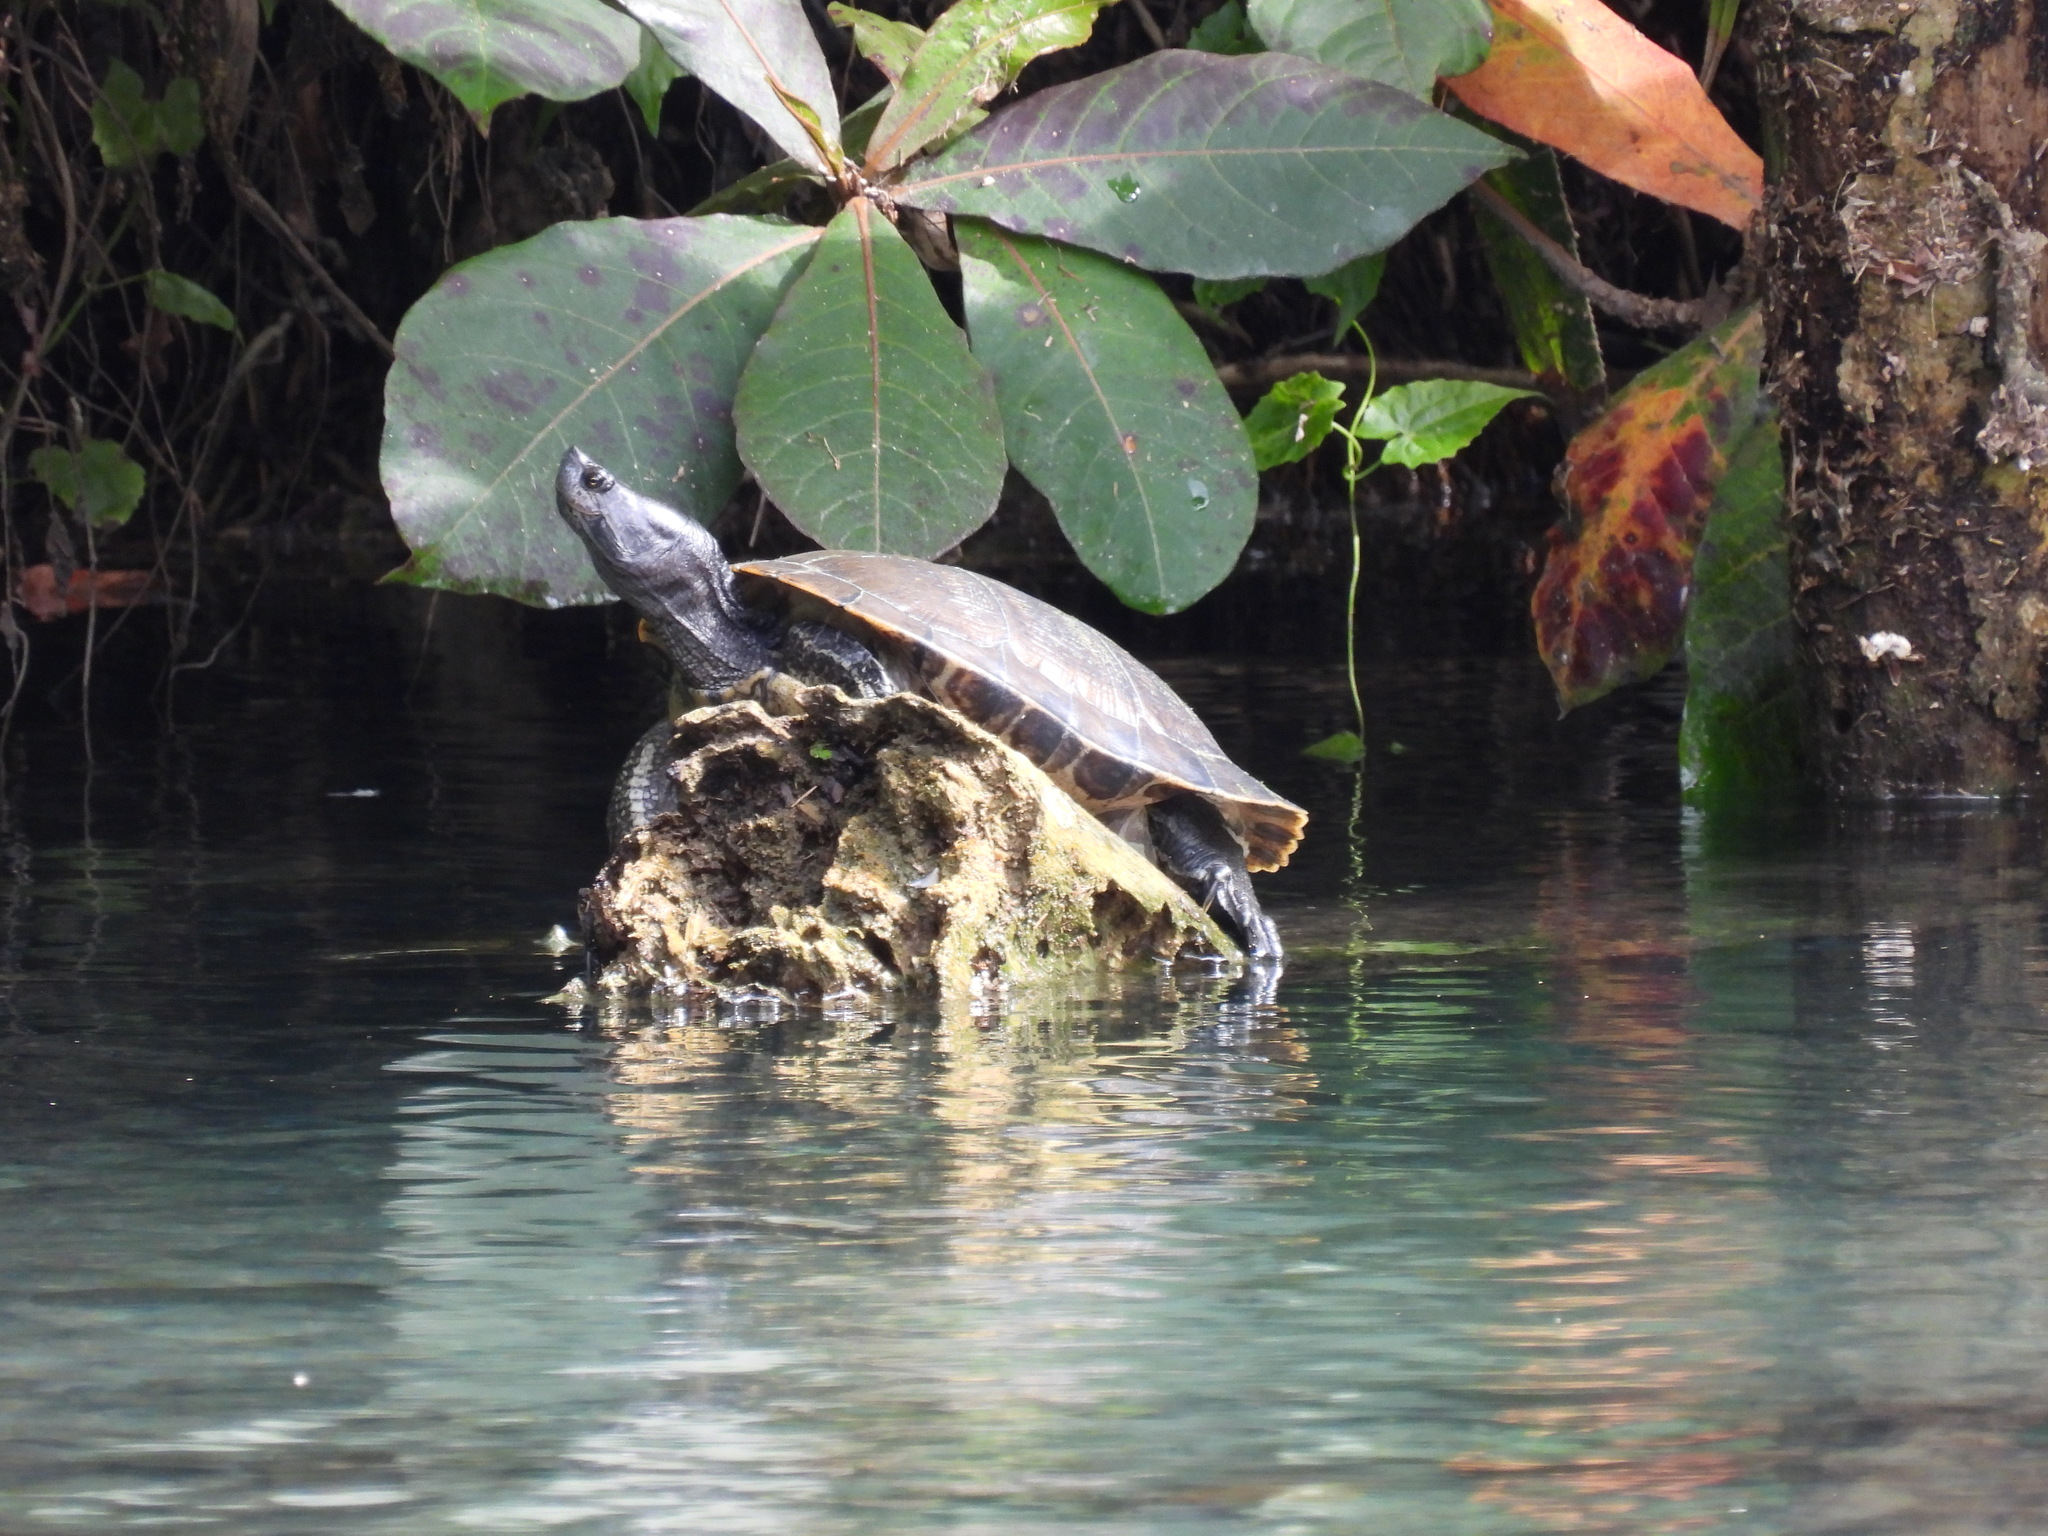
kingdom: Animalia
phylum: Chordata
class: Testudines
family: Emydidae
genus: Trachemys
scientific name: Trachemys decorata
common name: Hispaniolan slider
